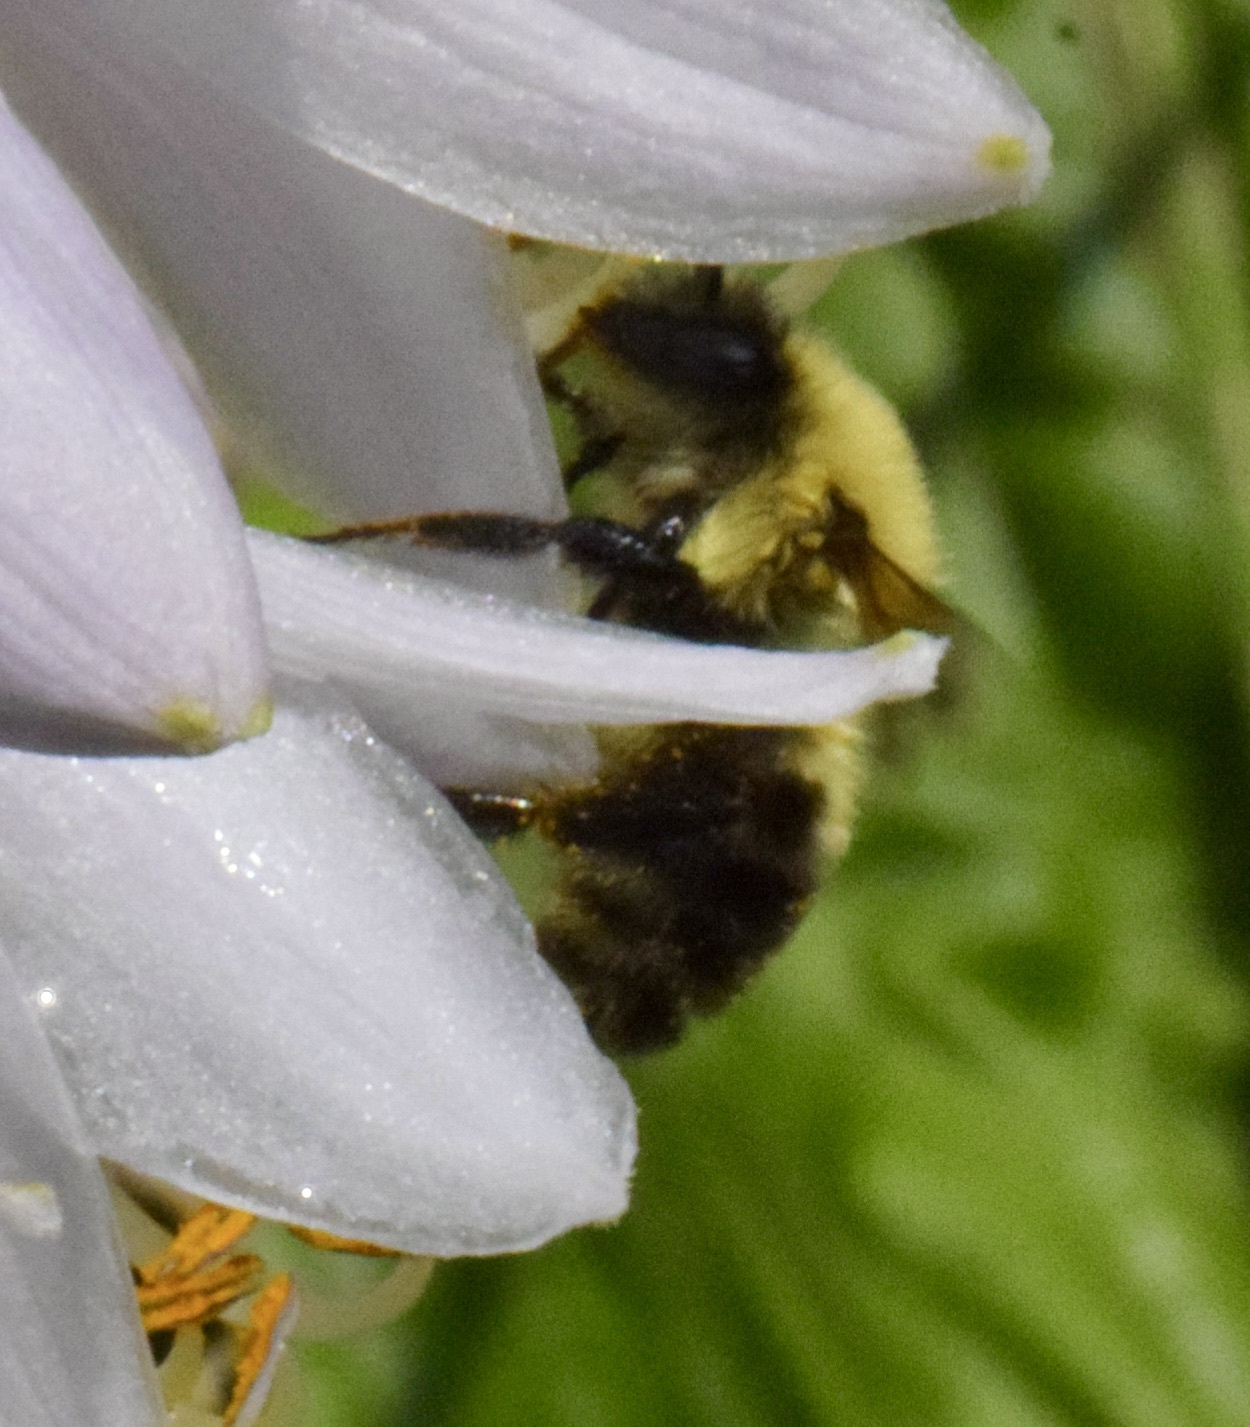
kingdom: Animalia
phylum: Arthropoda
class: Insecta
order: Hymenoptera
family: Apidae
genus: Bombus
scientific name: Bombus bimaculatus
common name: Two-spotted bumble bee
